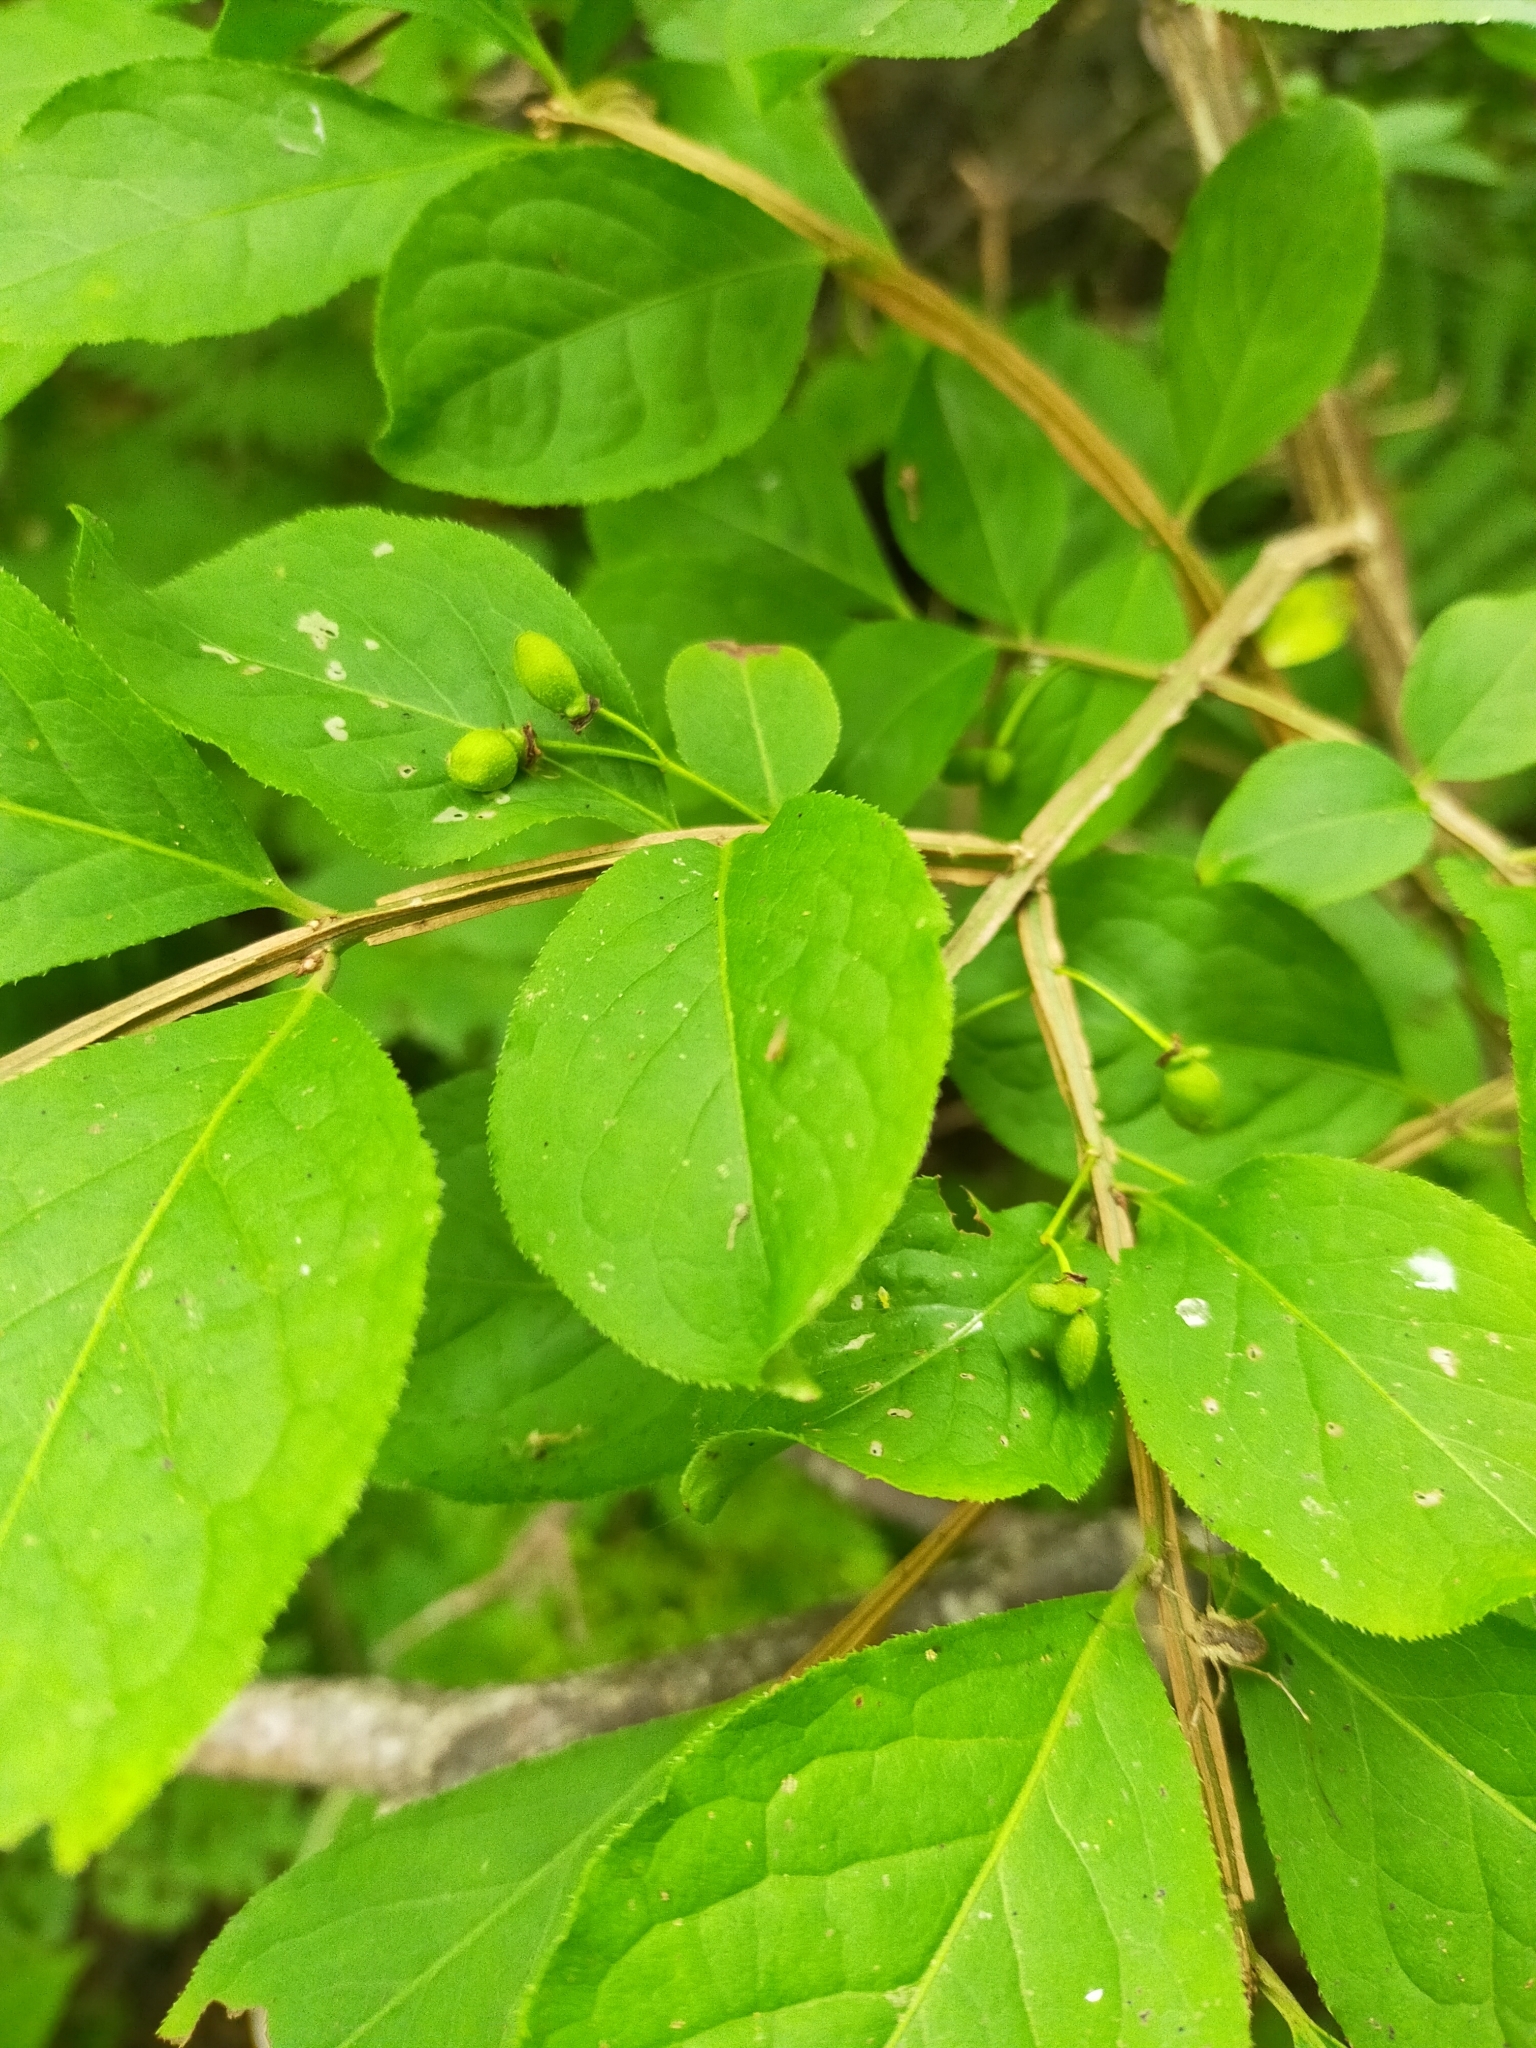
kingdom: Plantae
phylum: Tracheophyta
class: Magnoliopsida
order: Celastrales
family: Celastraceae
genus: Euonymus
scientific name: Euonymus alatus
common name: Winged euonymus
